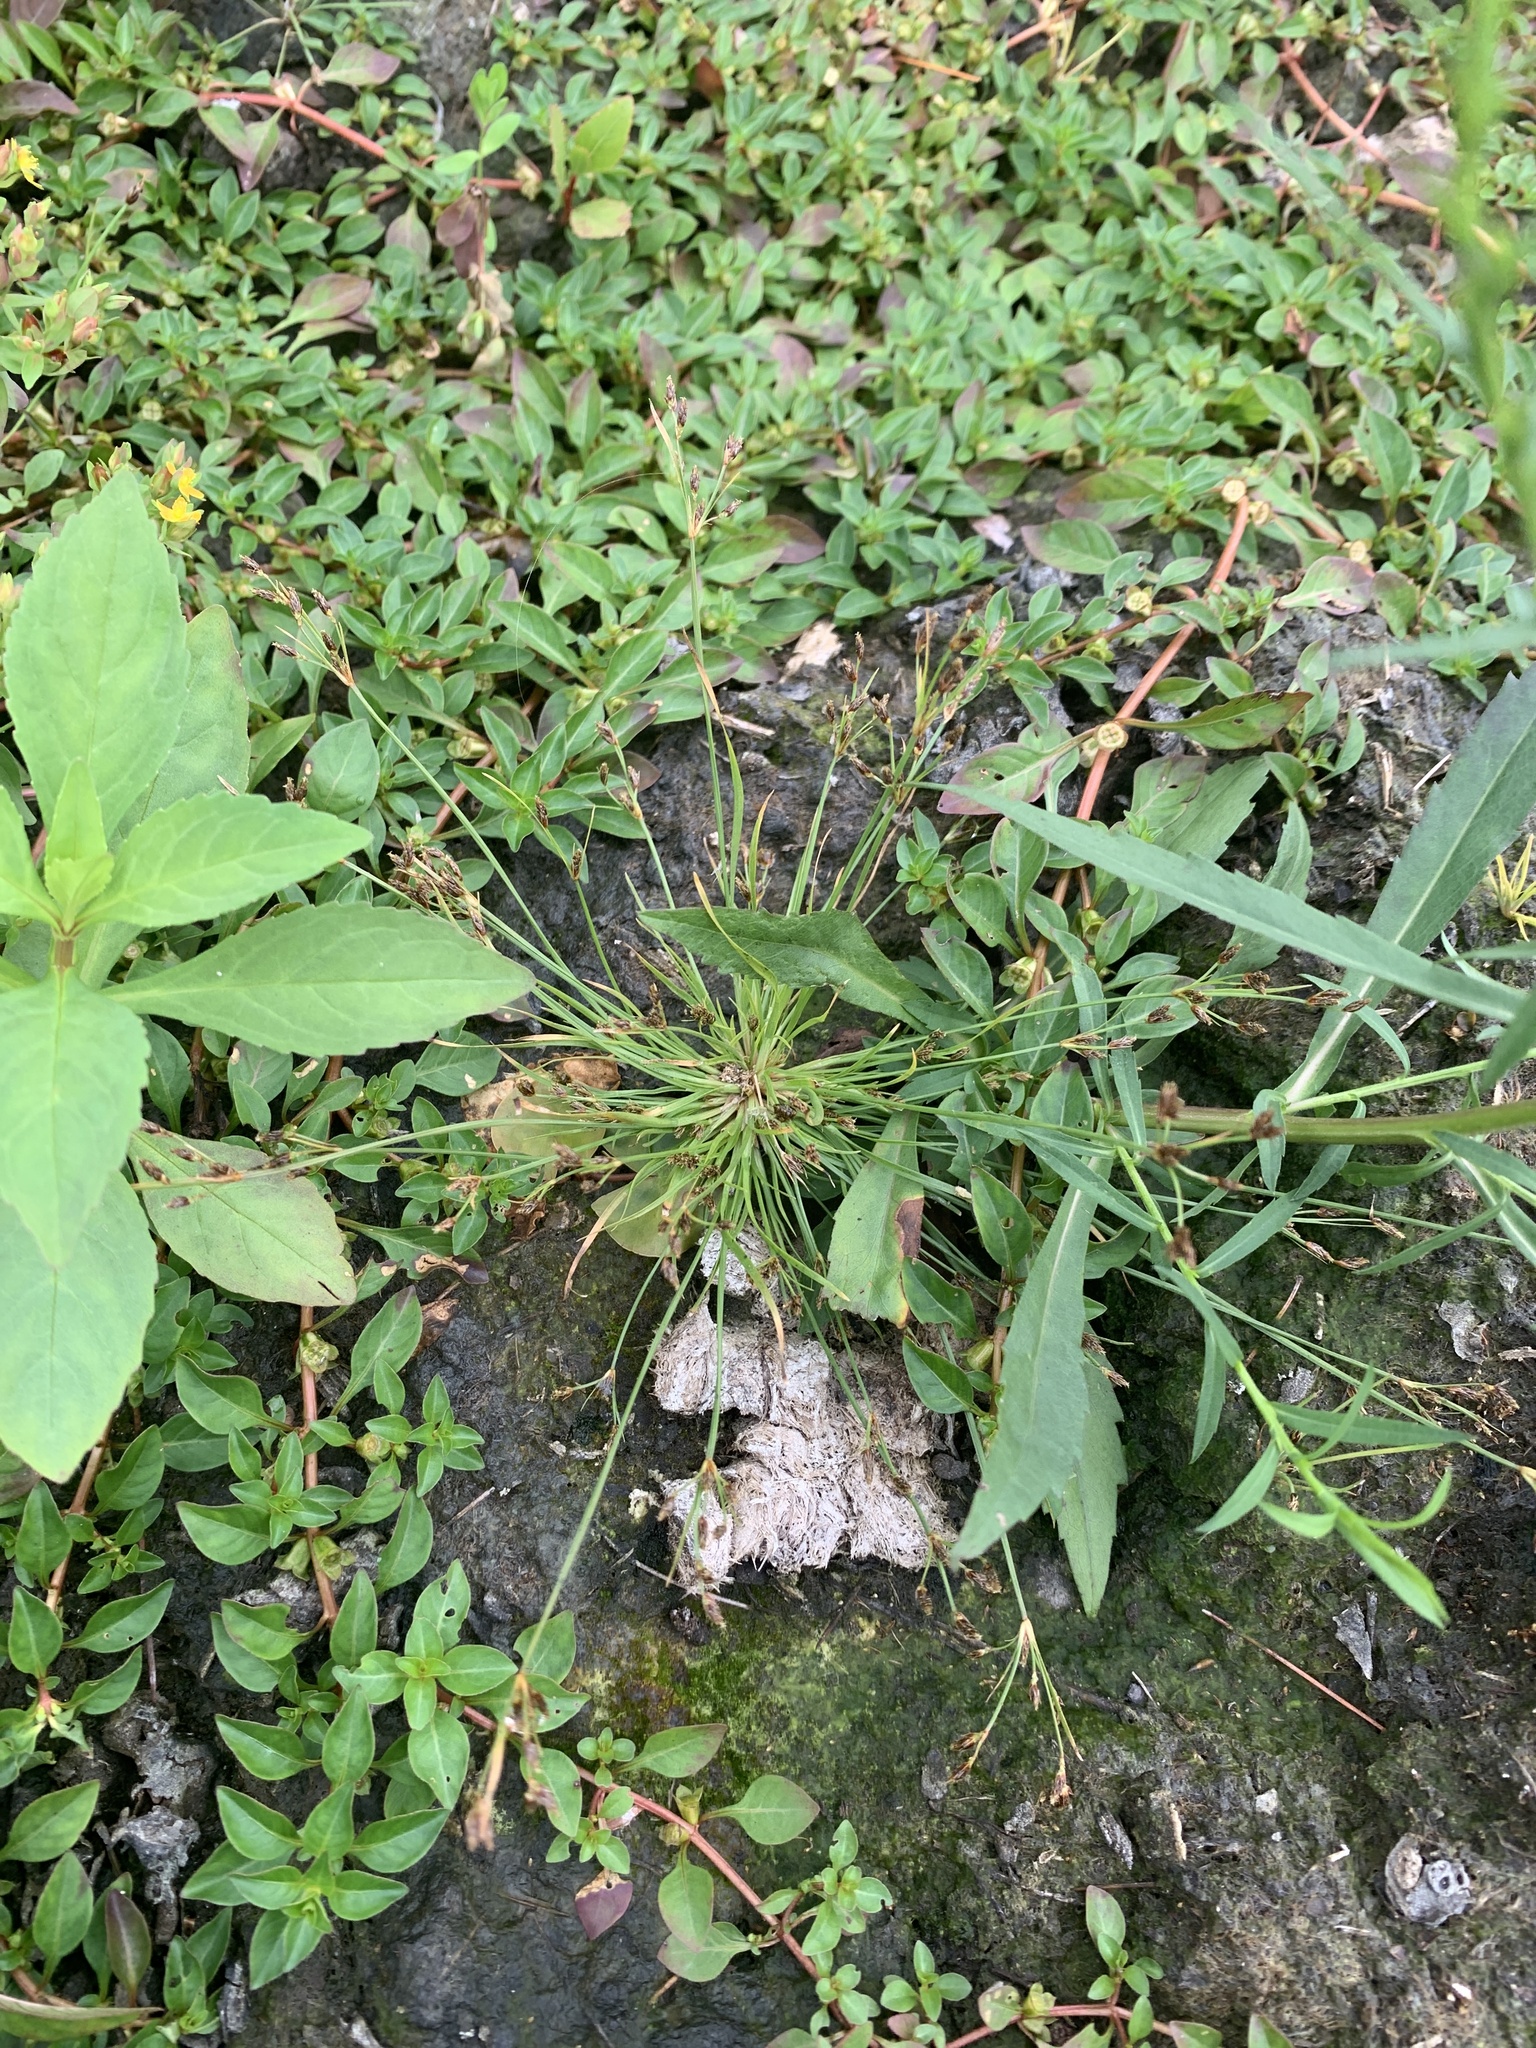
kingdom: Plantae
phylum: Tracheophyta
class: Liliopsida
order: Poales
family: Cyperaceae
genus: Fimbristylis
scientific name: Fimbristylis autumnalis
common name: Slender fimbristylis
